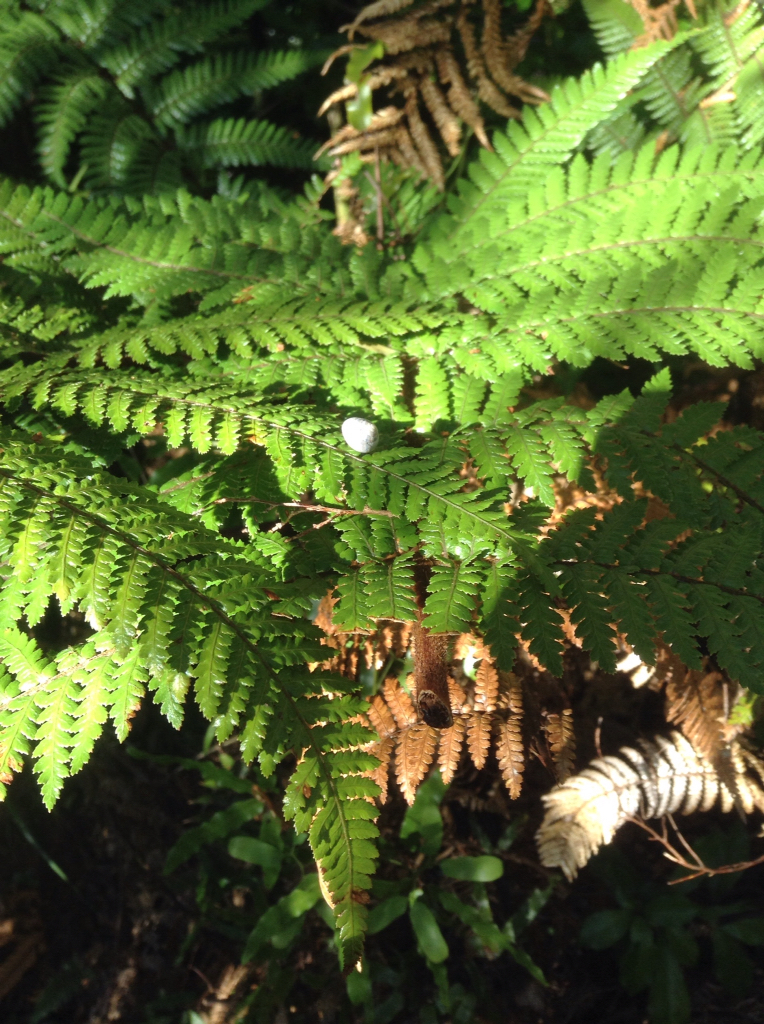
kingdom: Animalia
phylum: Mollusca
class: Gastropoda
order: Stylommatophora
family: Charopidae
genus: Serpho
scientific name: Serpho
